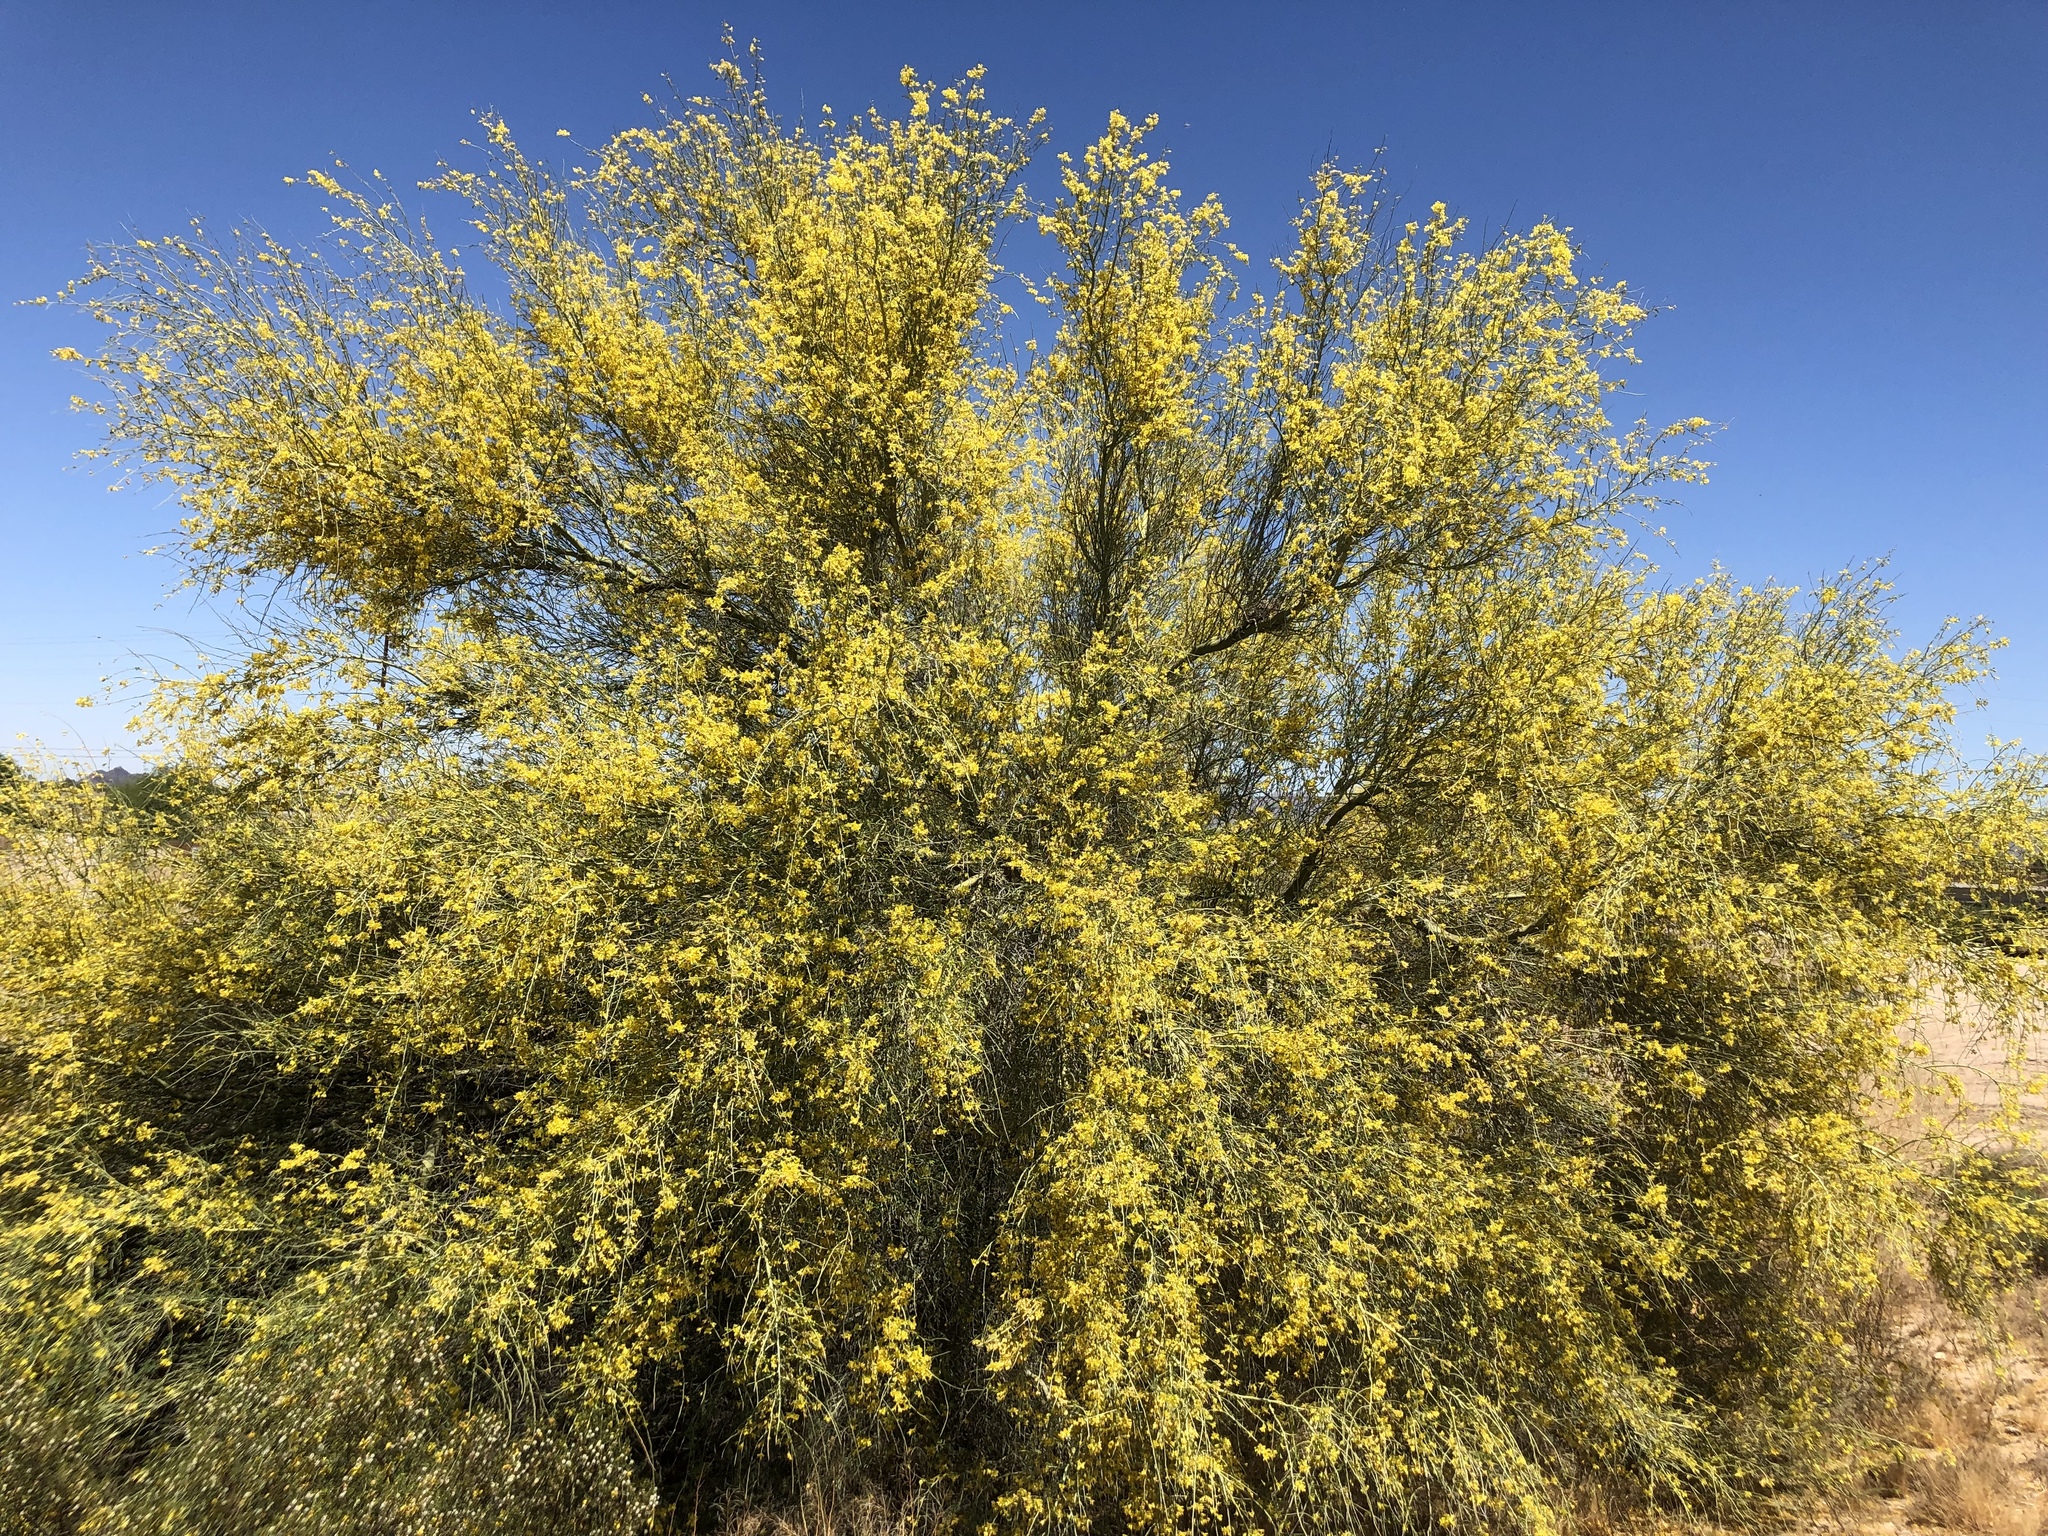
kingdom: Plantae
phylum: Tracheophyta
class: Magnoliopsida
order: Fabales
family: Fabaceae
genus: Parkinsonia
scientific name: Parkinsonia florida
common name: Blue paloverde
